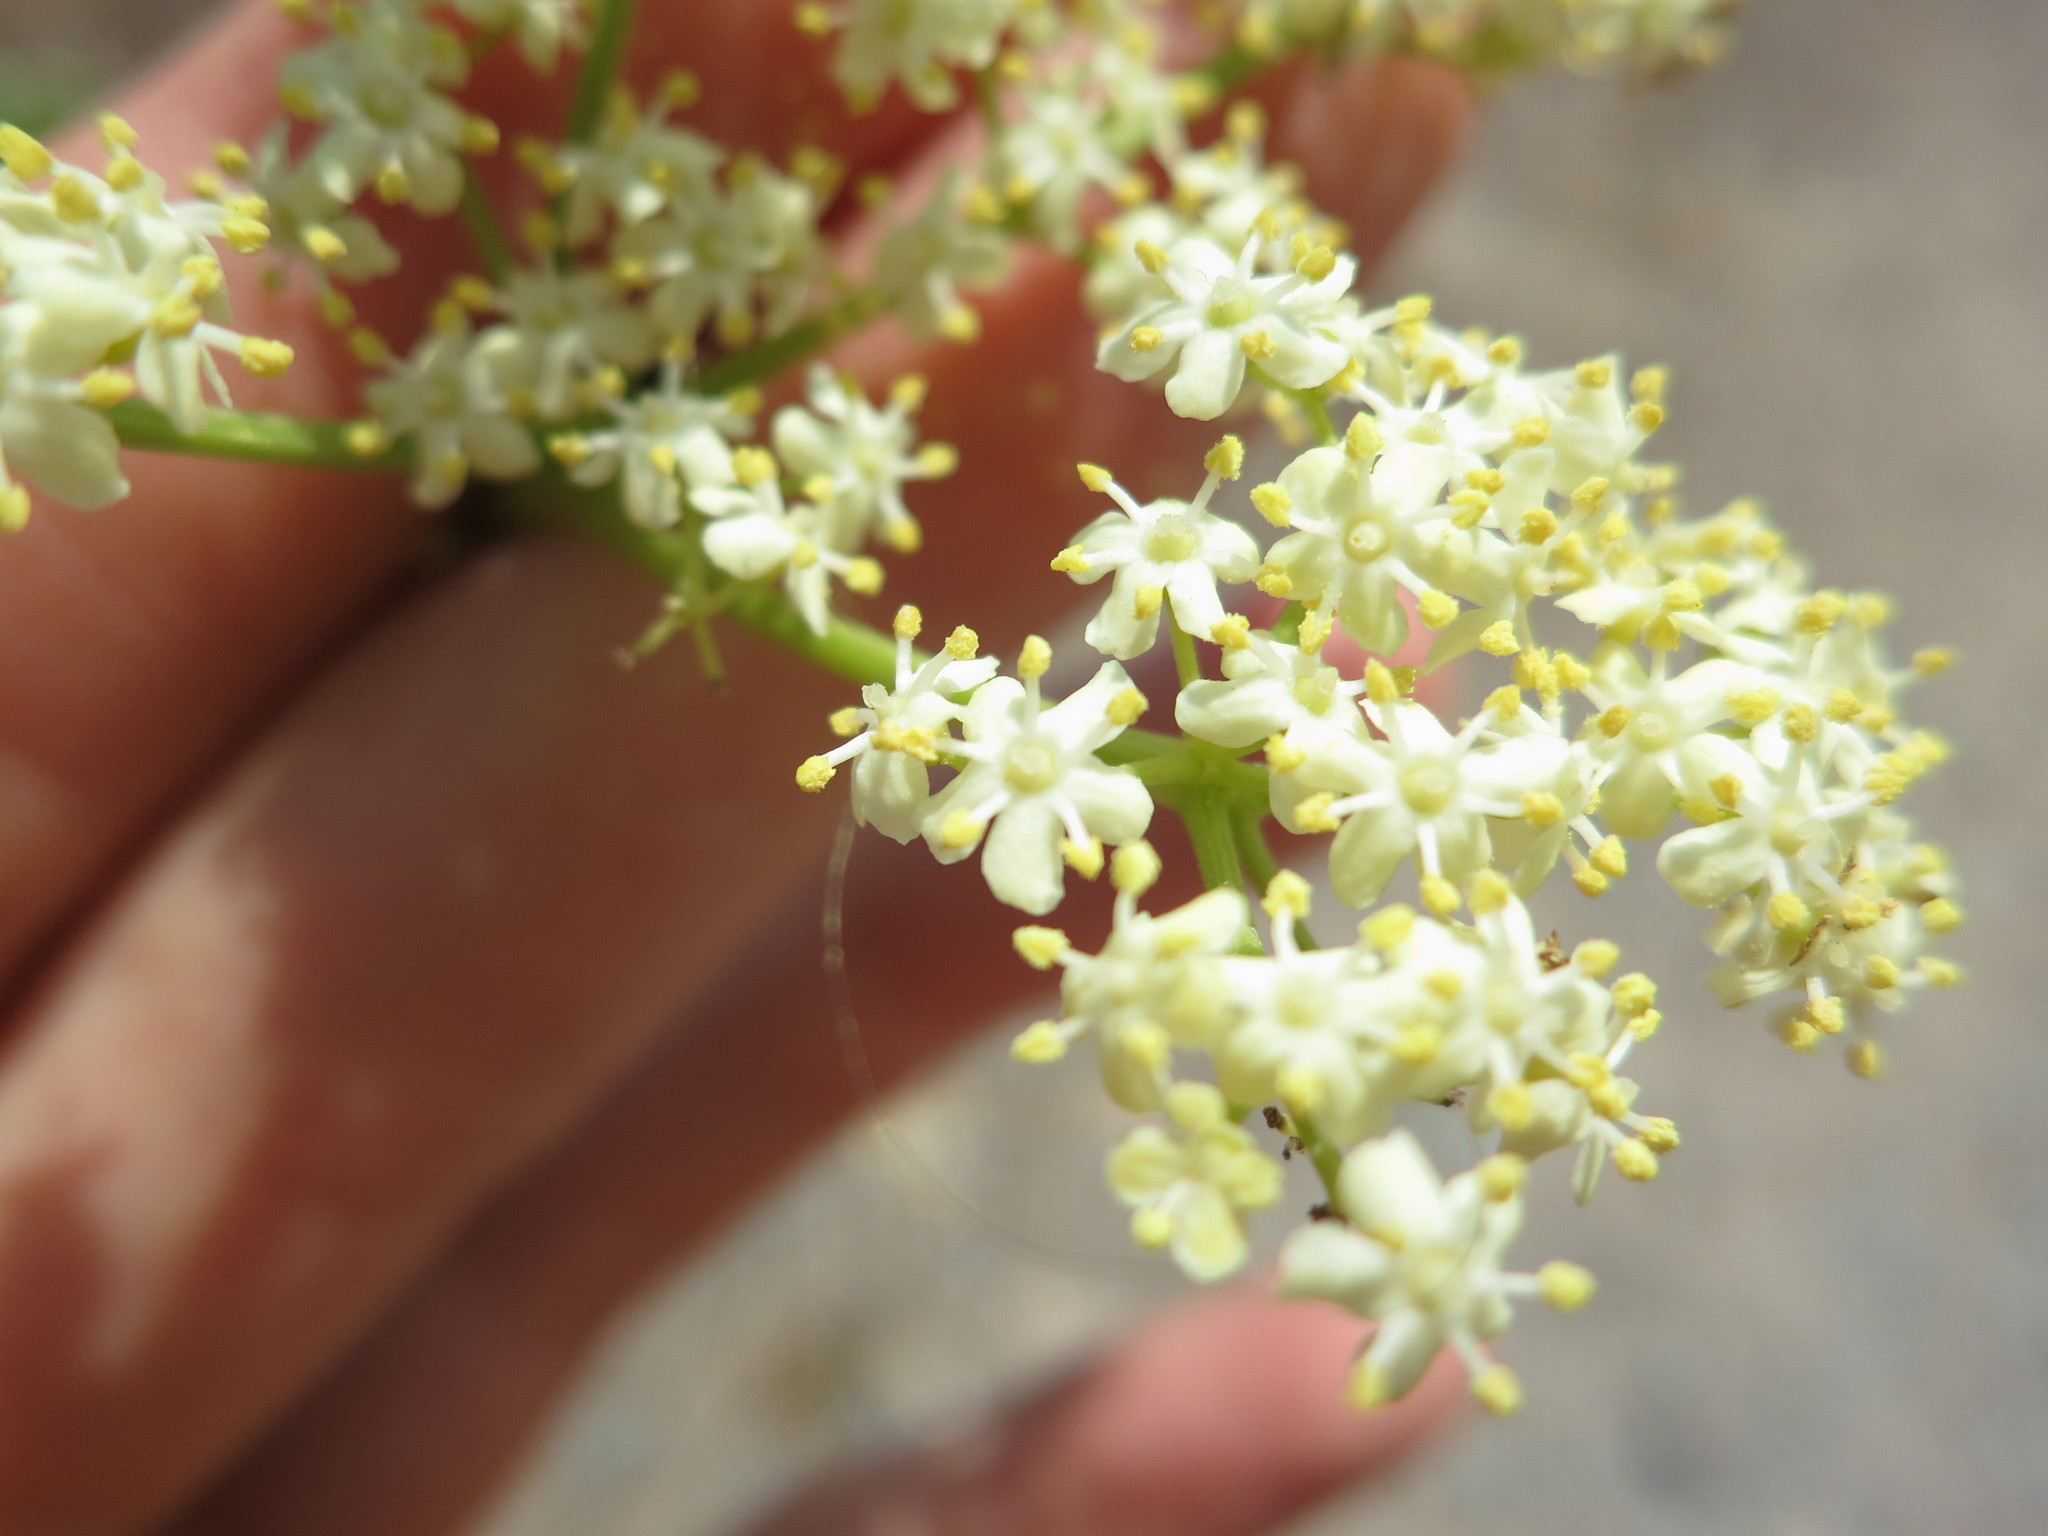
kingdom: Plantae
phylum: Tracheophyta
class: Magnoliopsida
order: Dipsacales
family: Viburnaceae
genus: Sambucus
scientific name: Sambucus cerulea
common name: Blue elder
